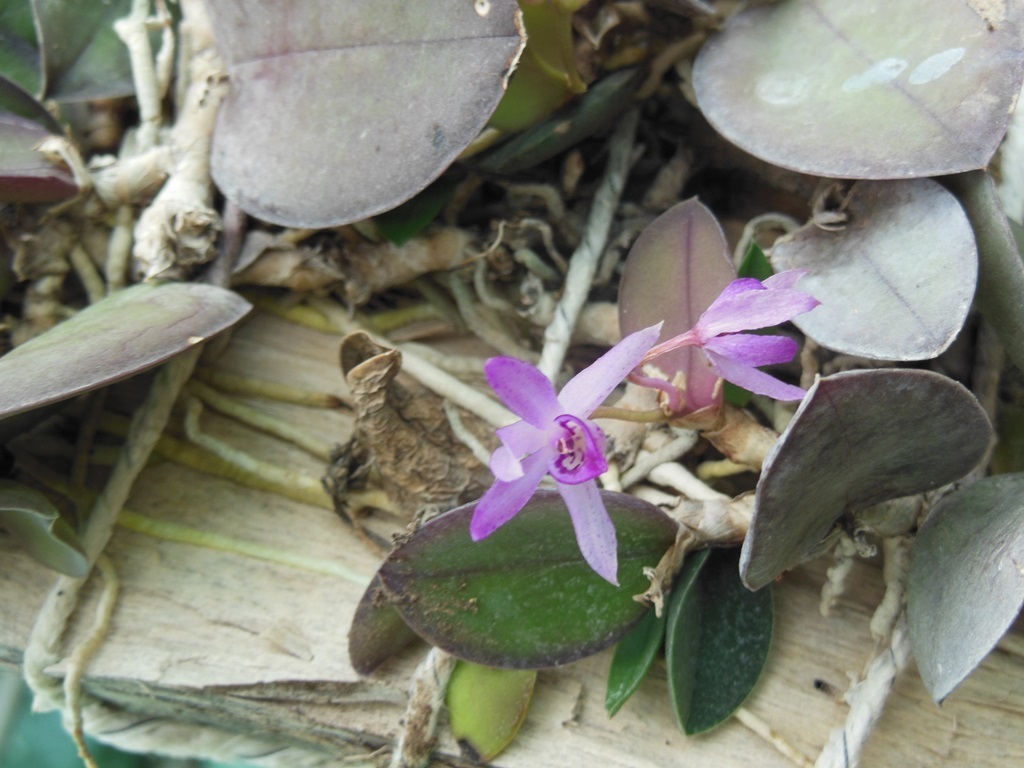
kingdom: Plantae
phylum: Tracheophyta
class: Liliopsida
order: Asparagales
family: Orchidaceae
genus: Meiracyllium
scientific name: Meiracyllium trinasutum
